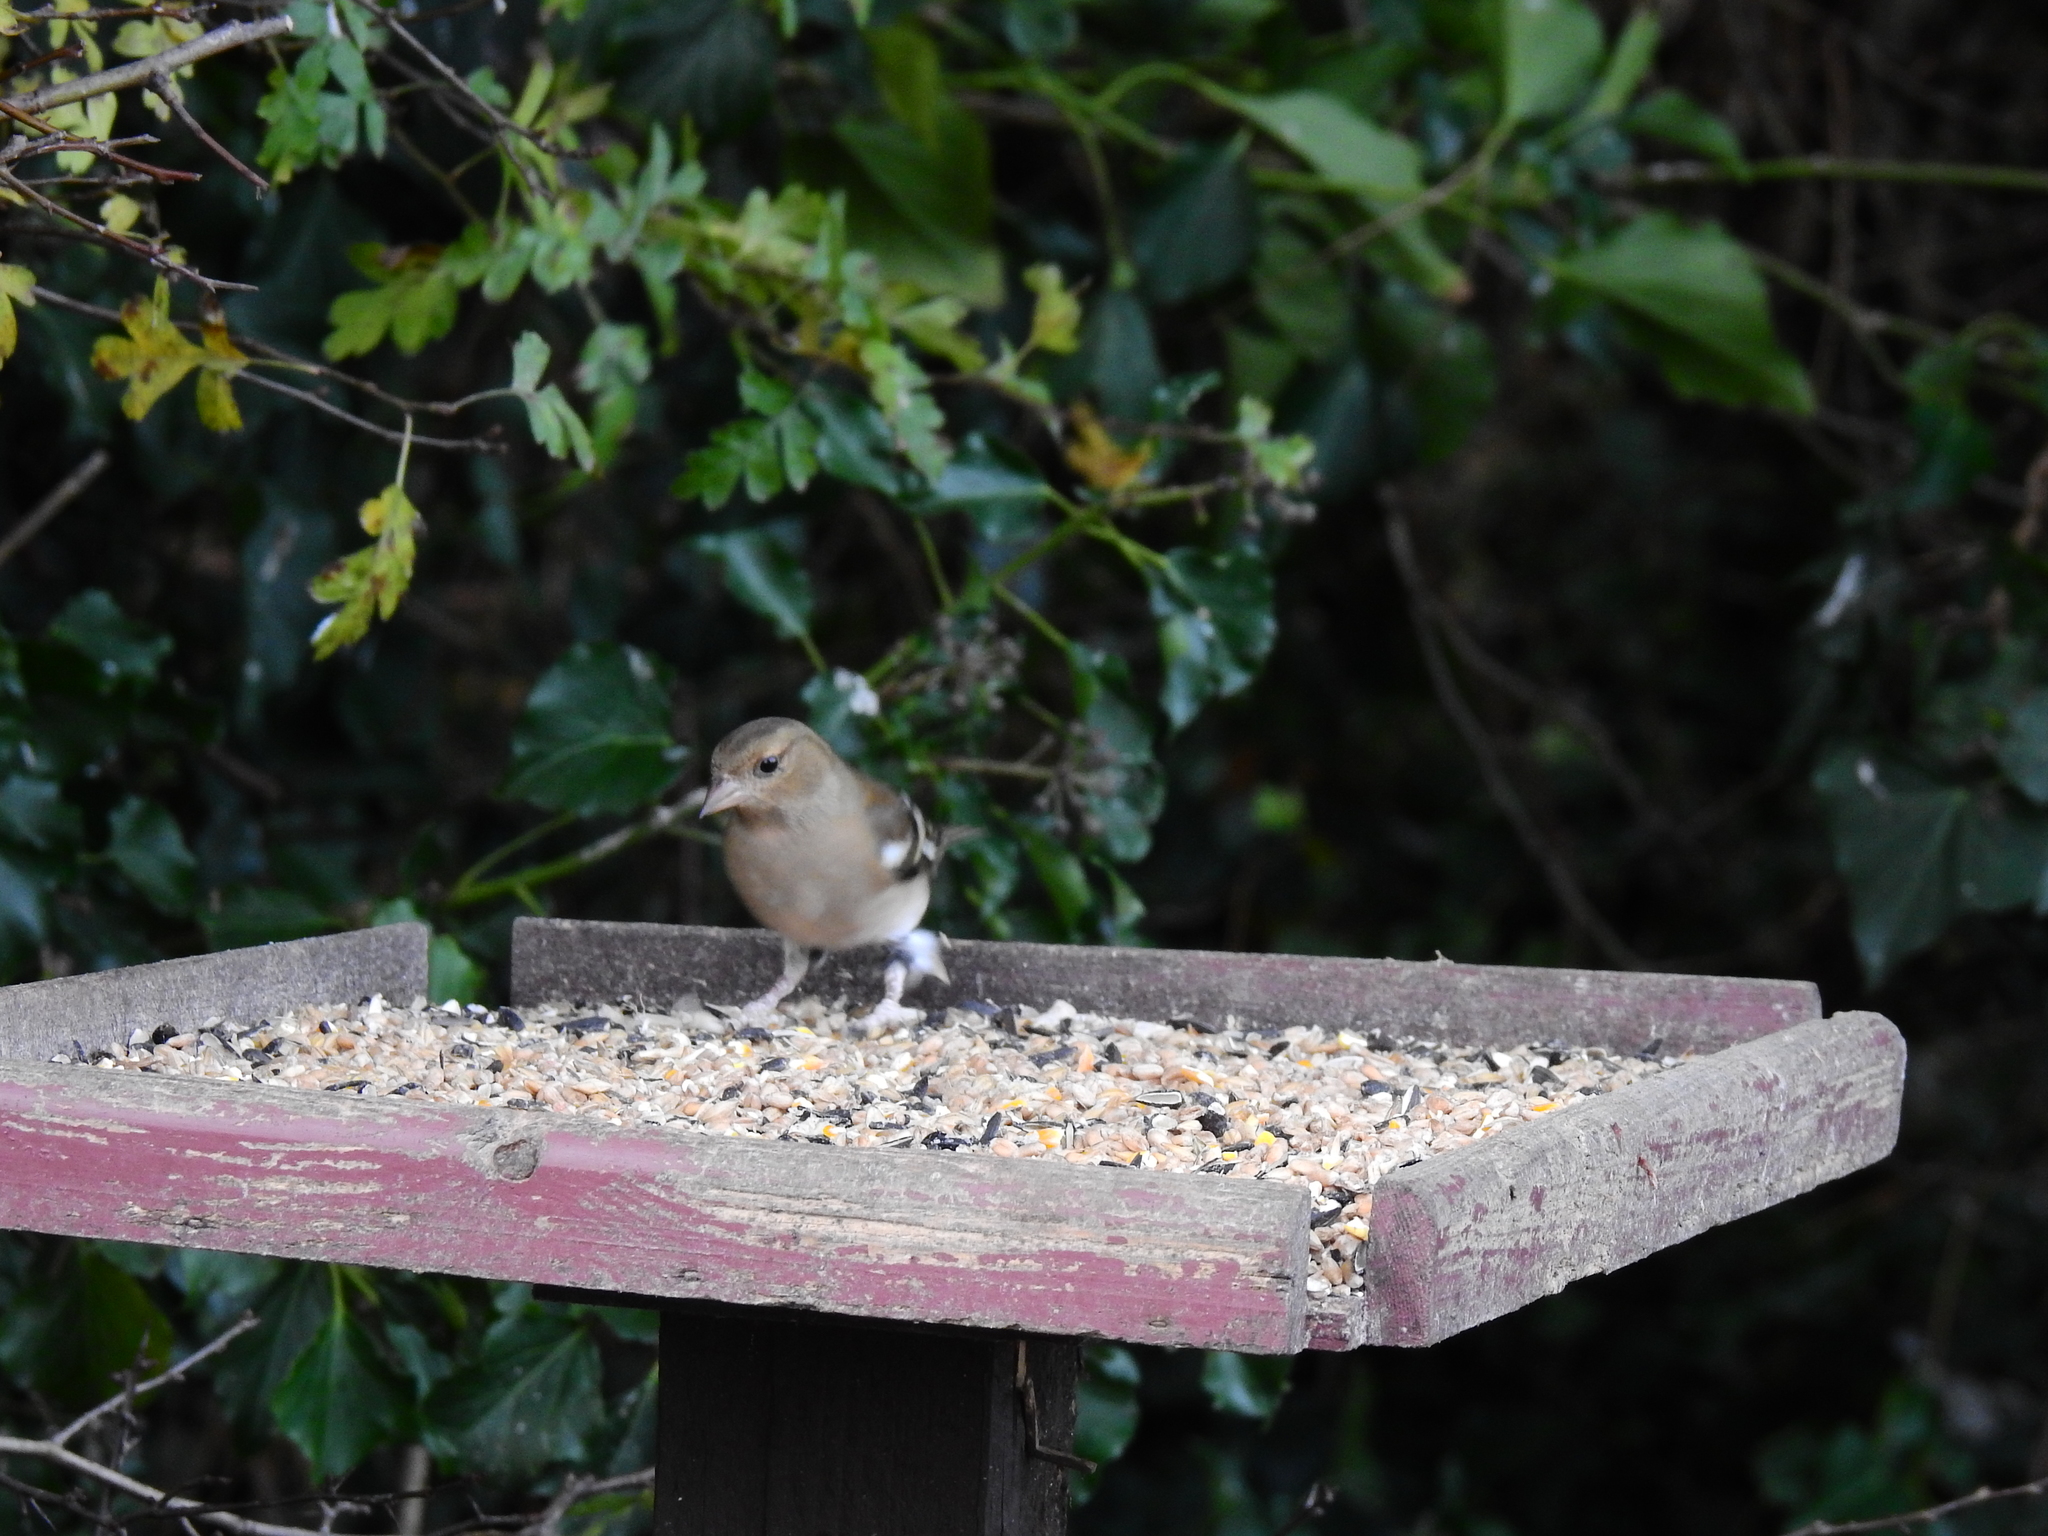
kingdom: Animalia
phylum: Chordata
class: Aves
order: Passeriformes
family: Fringillidae
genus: Fringilla
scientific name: Fringilla coelebs
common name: Common chaffinch
